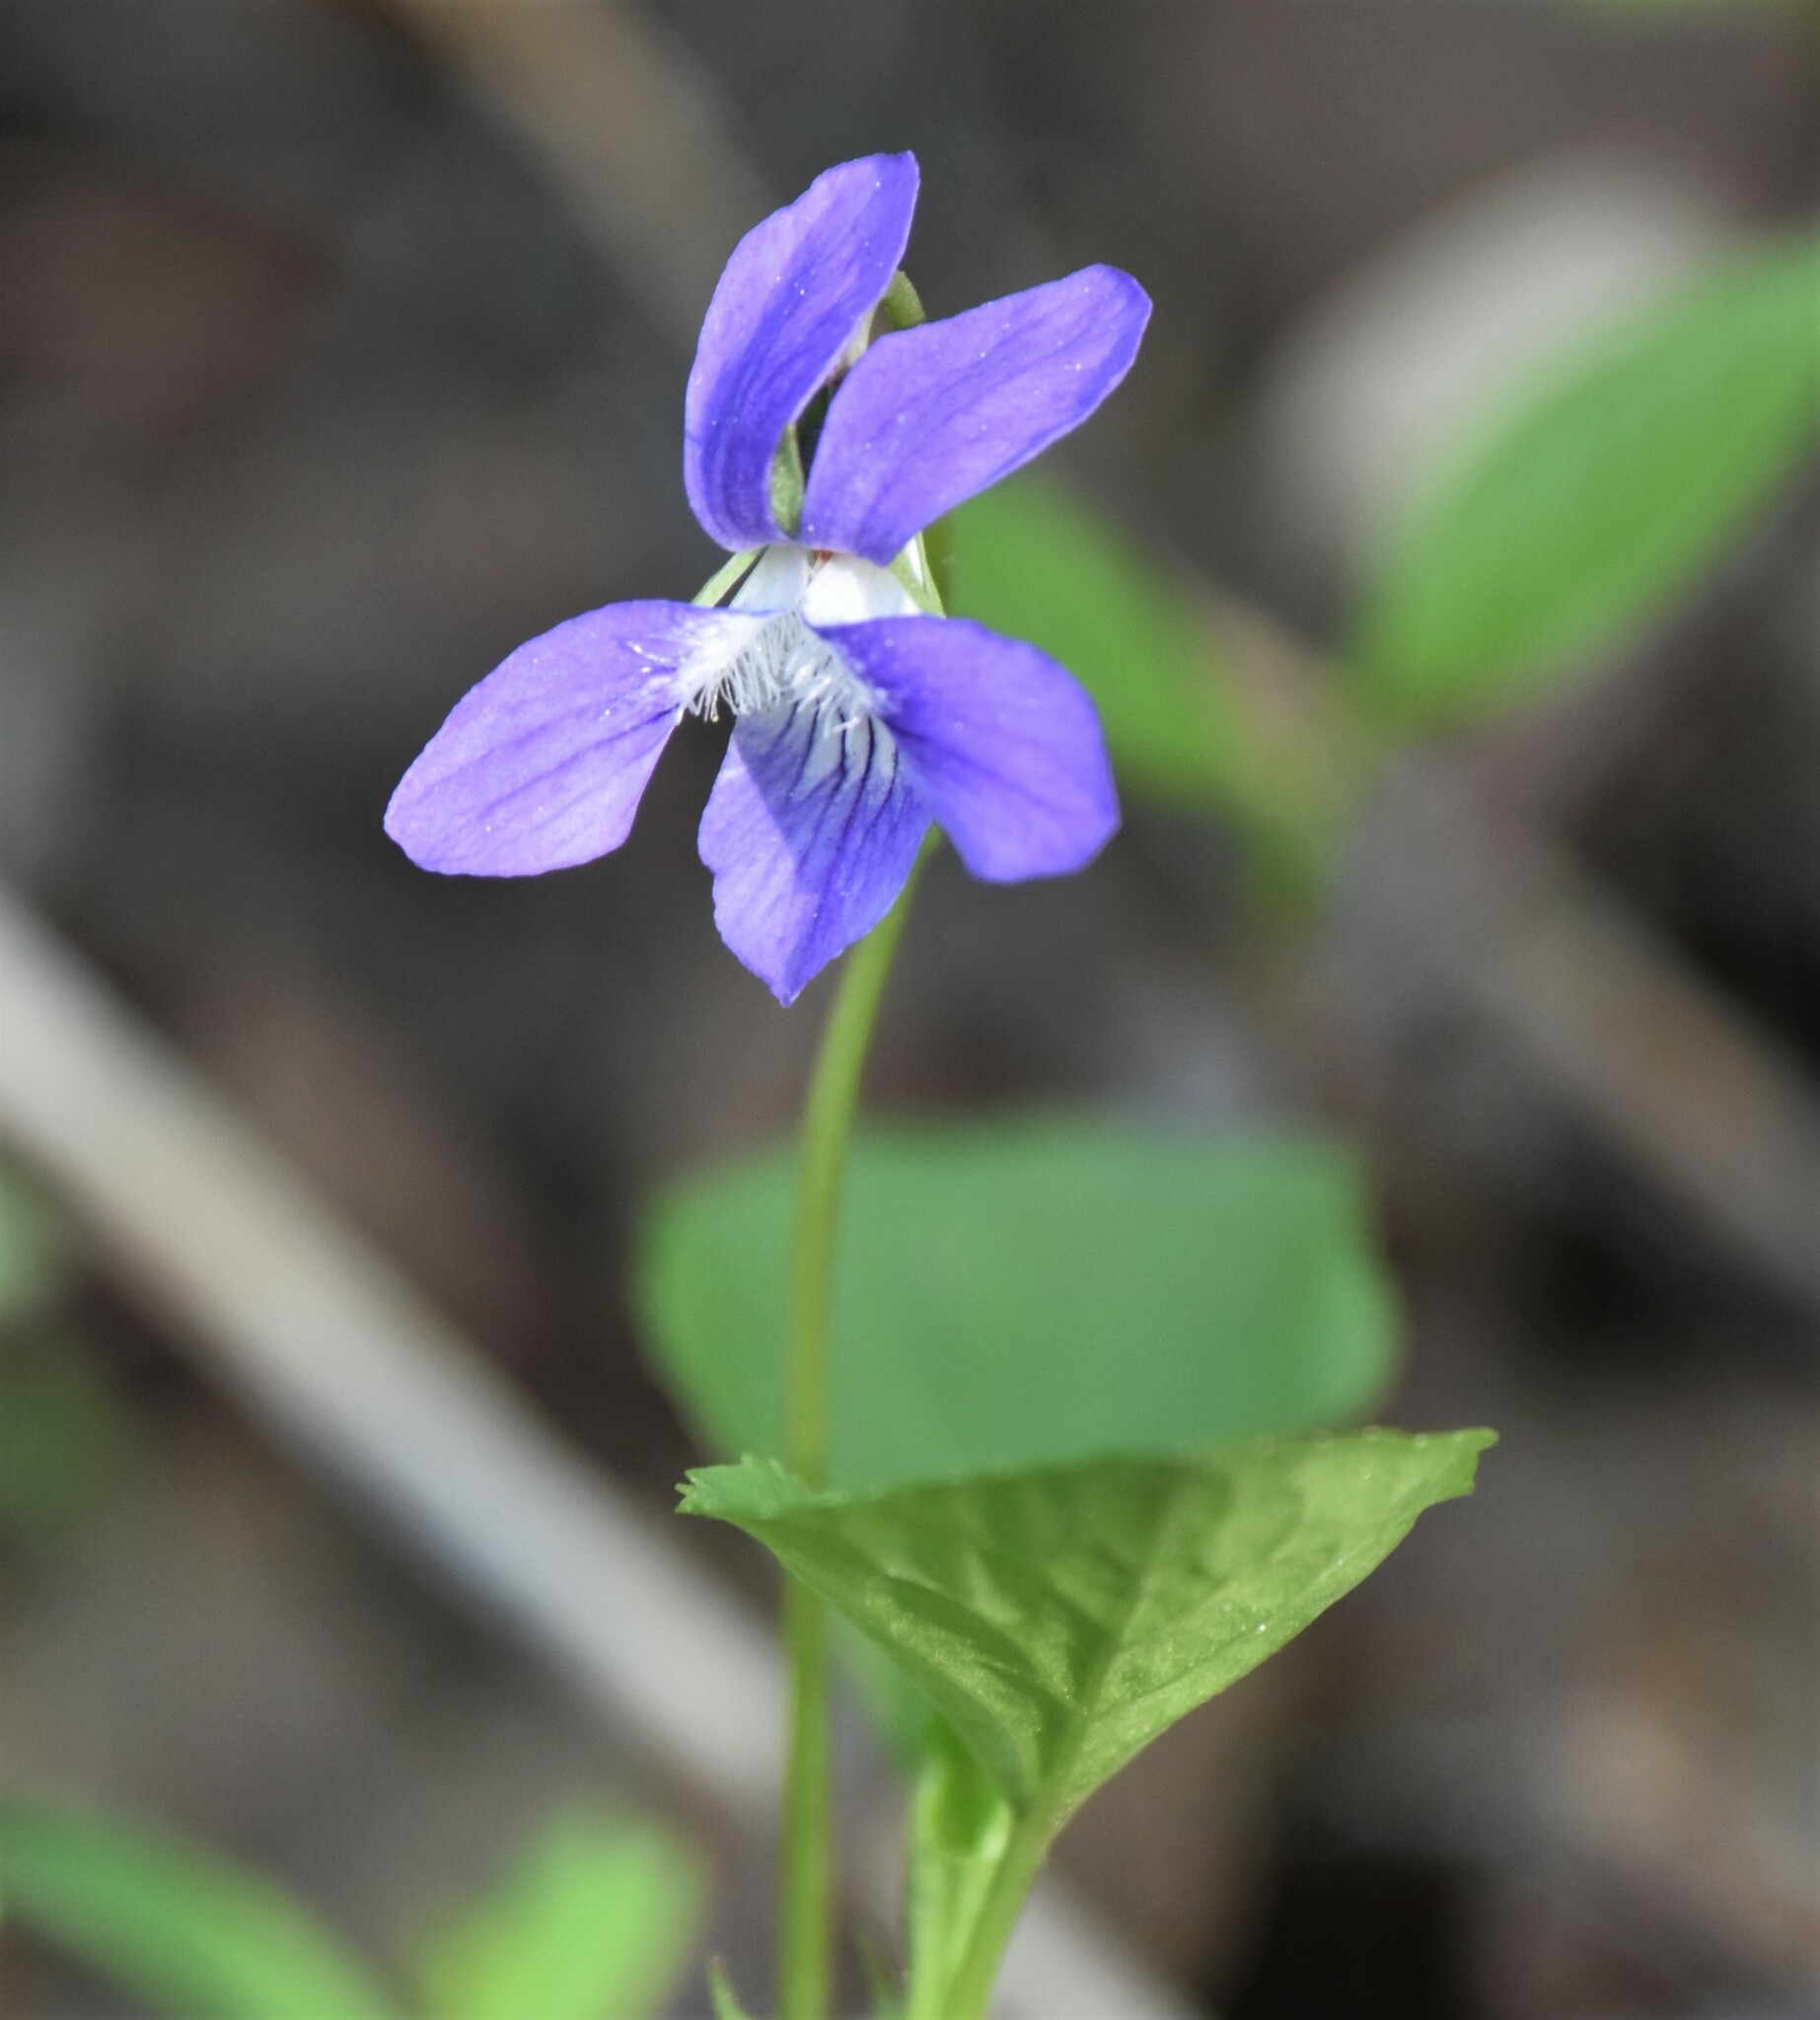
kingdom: Plantae
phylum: Tracheophyta
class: Magnoliopsida
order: Malpighiales
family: Violaceae
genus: Viola
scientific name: Viola adunca
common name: Sand violet
